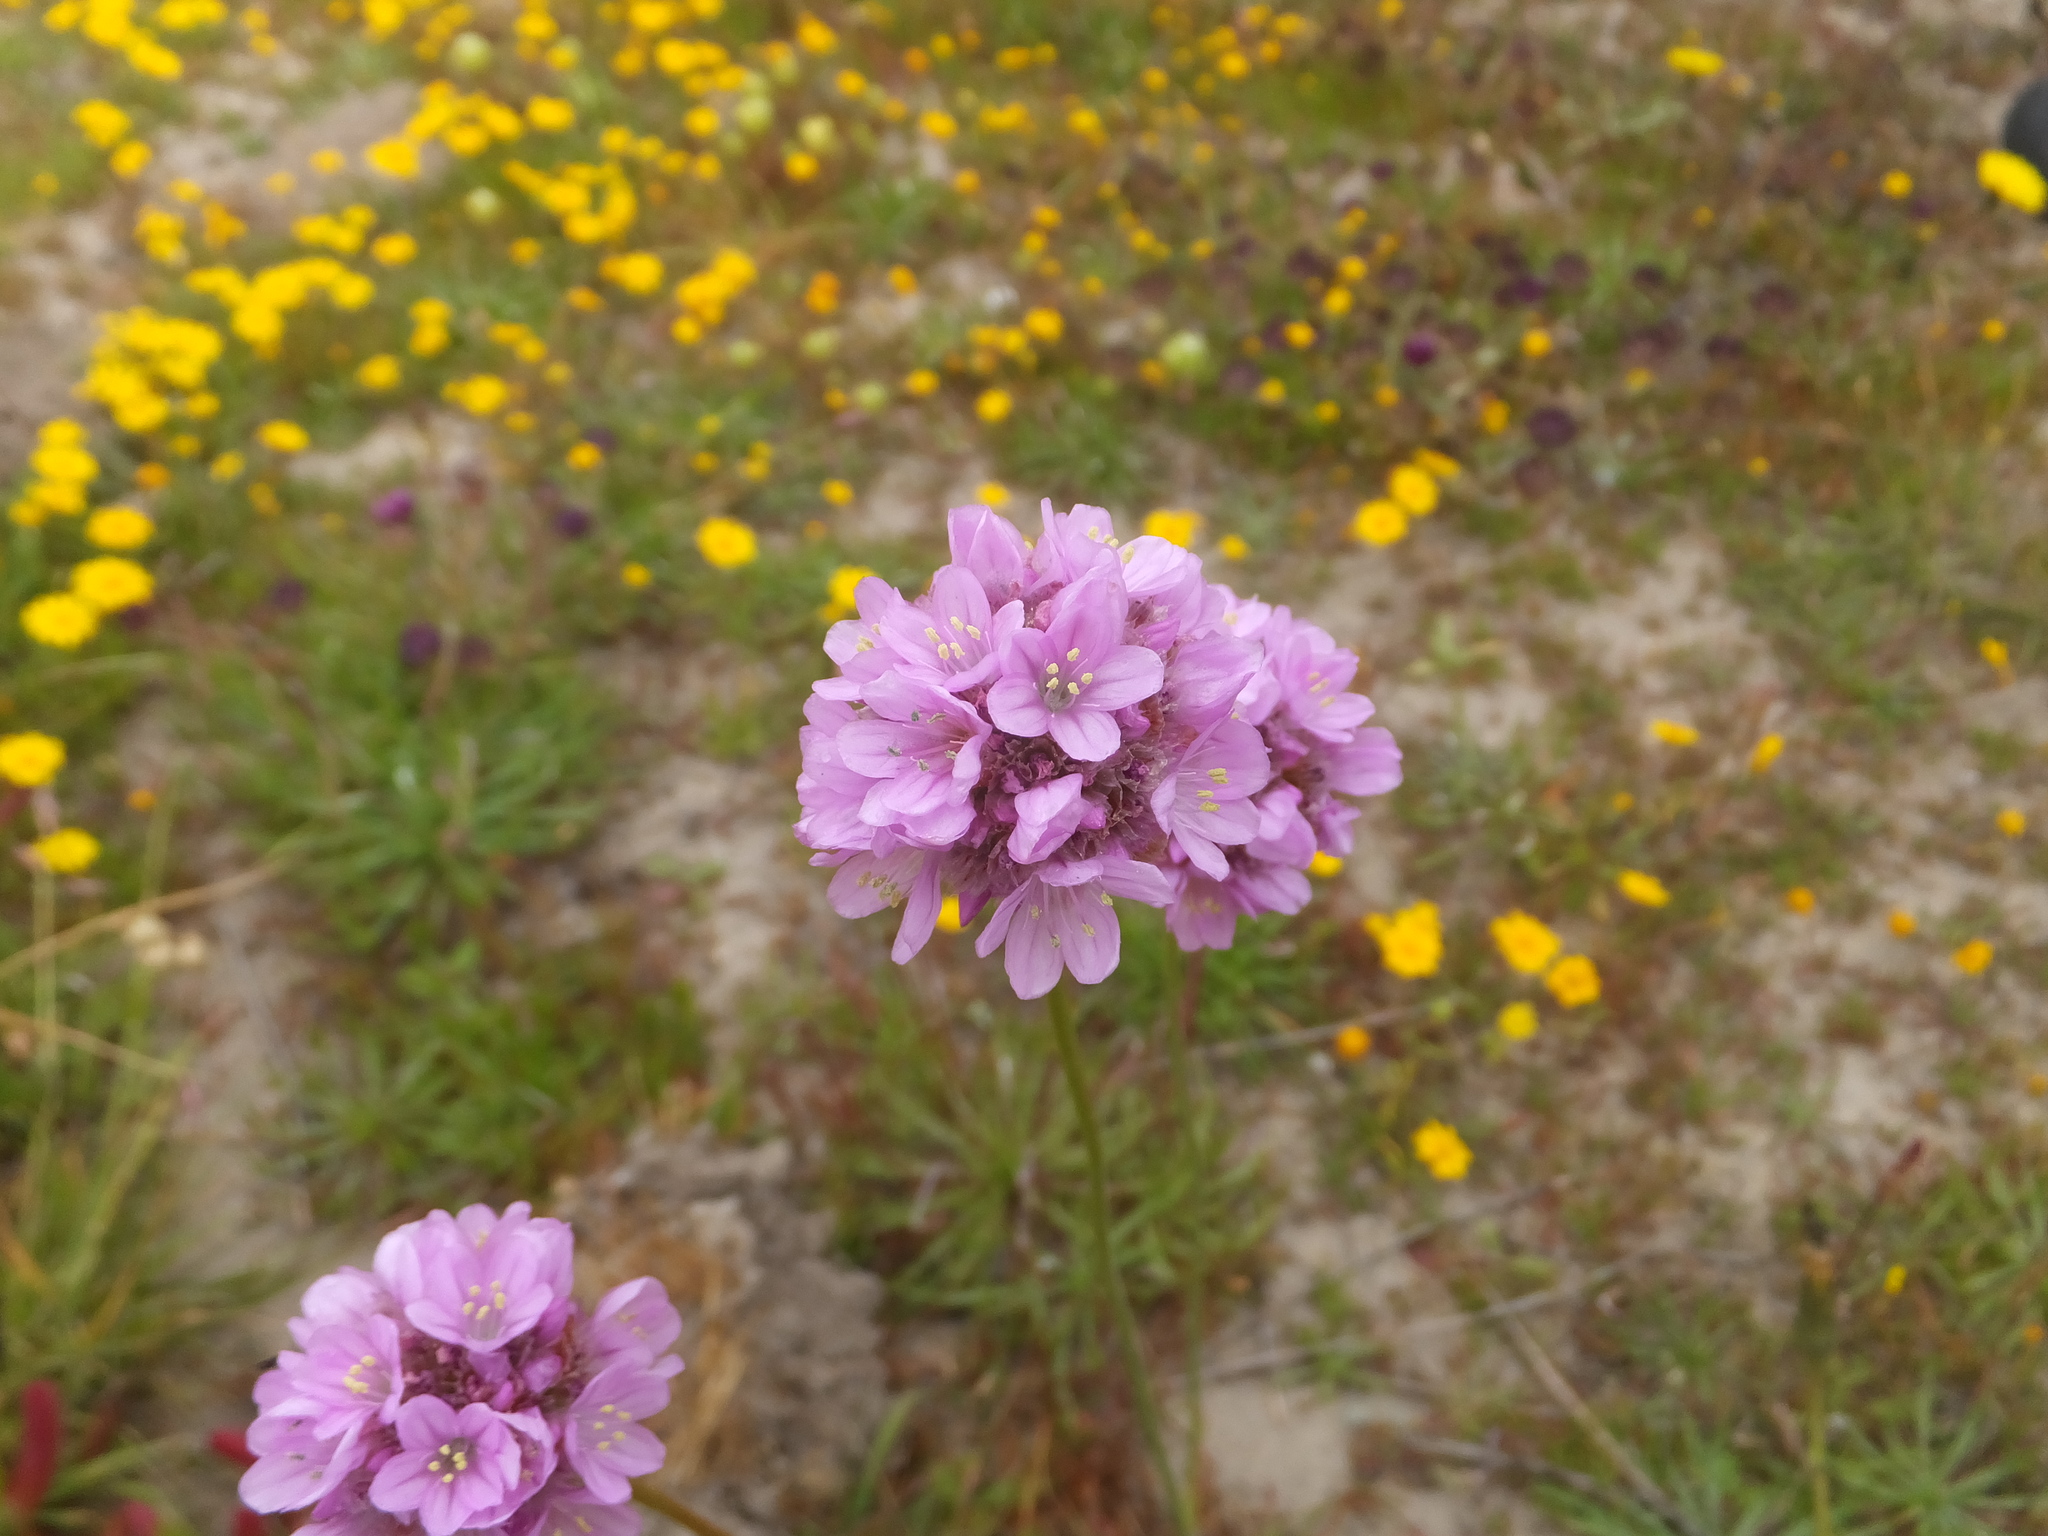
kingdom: Plantae
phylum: Tracheophyta
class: Magnoliopsida
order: Caryophyllales
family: Plumbaginaceae
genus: Armeria
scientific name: Armeria maritima
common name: Thrift
